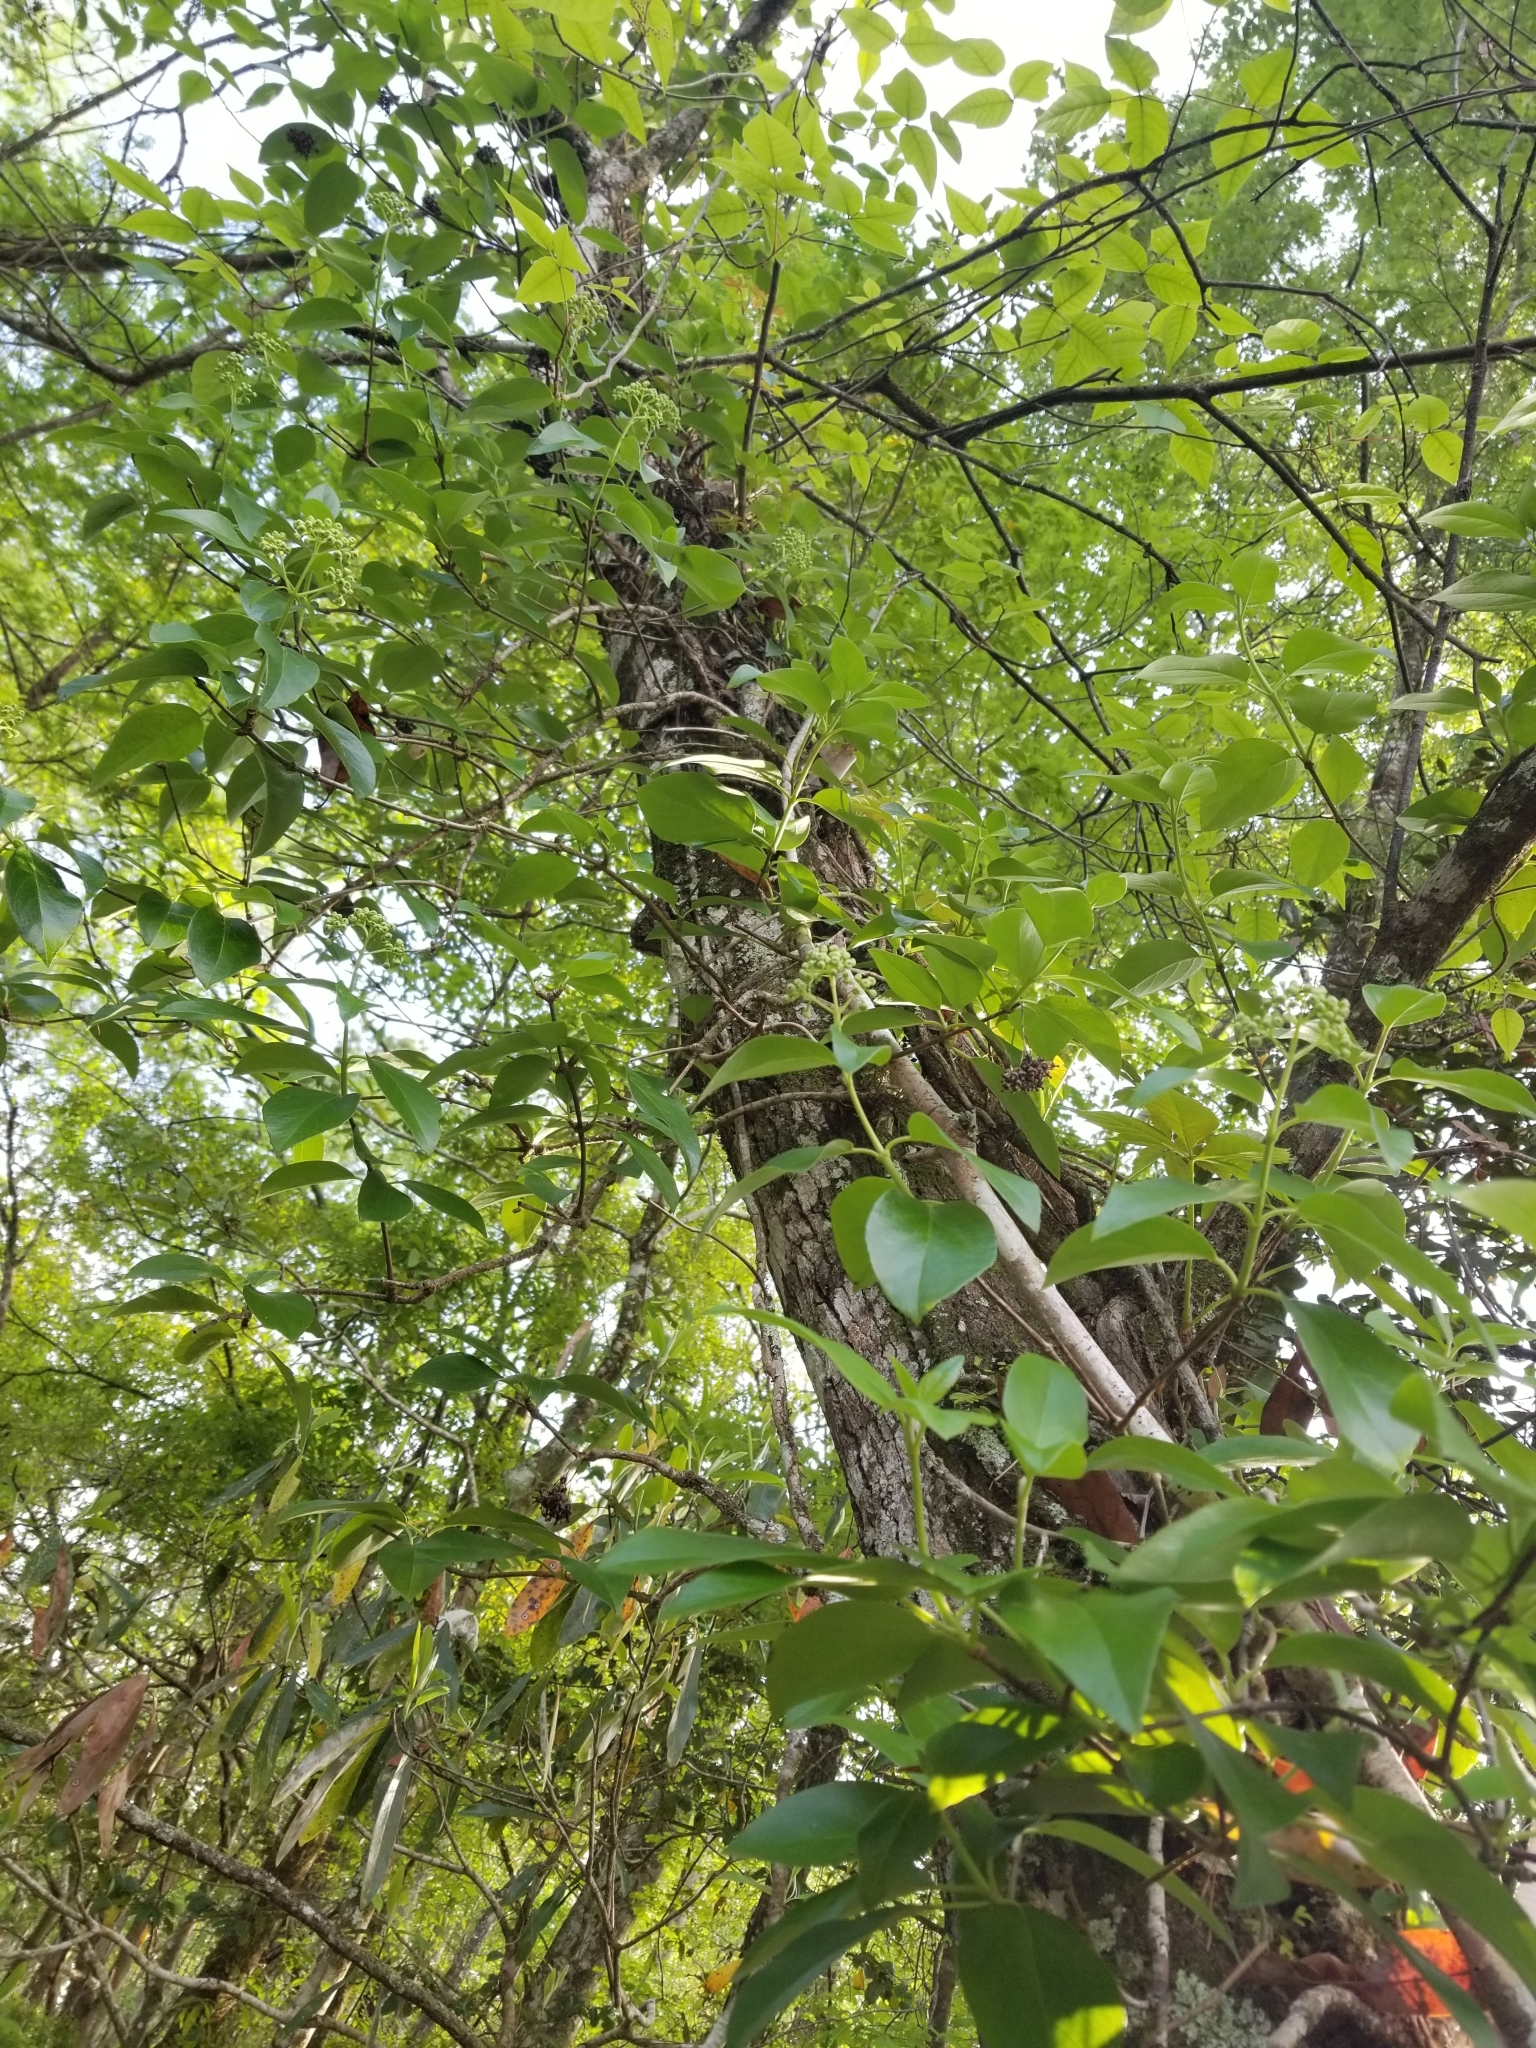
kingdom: Plantae
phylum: Tracheophyta
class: Magnoliopsida
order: Cornales
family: Hydrangeaceae
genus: Hydrangea
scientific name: Hydrangea barbara
